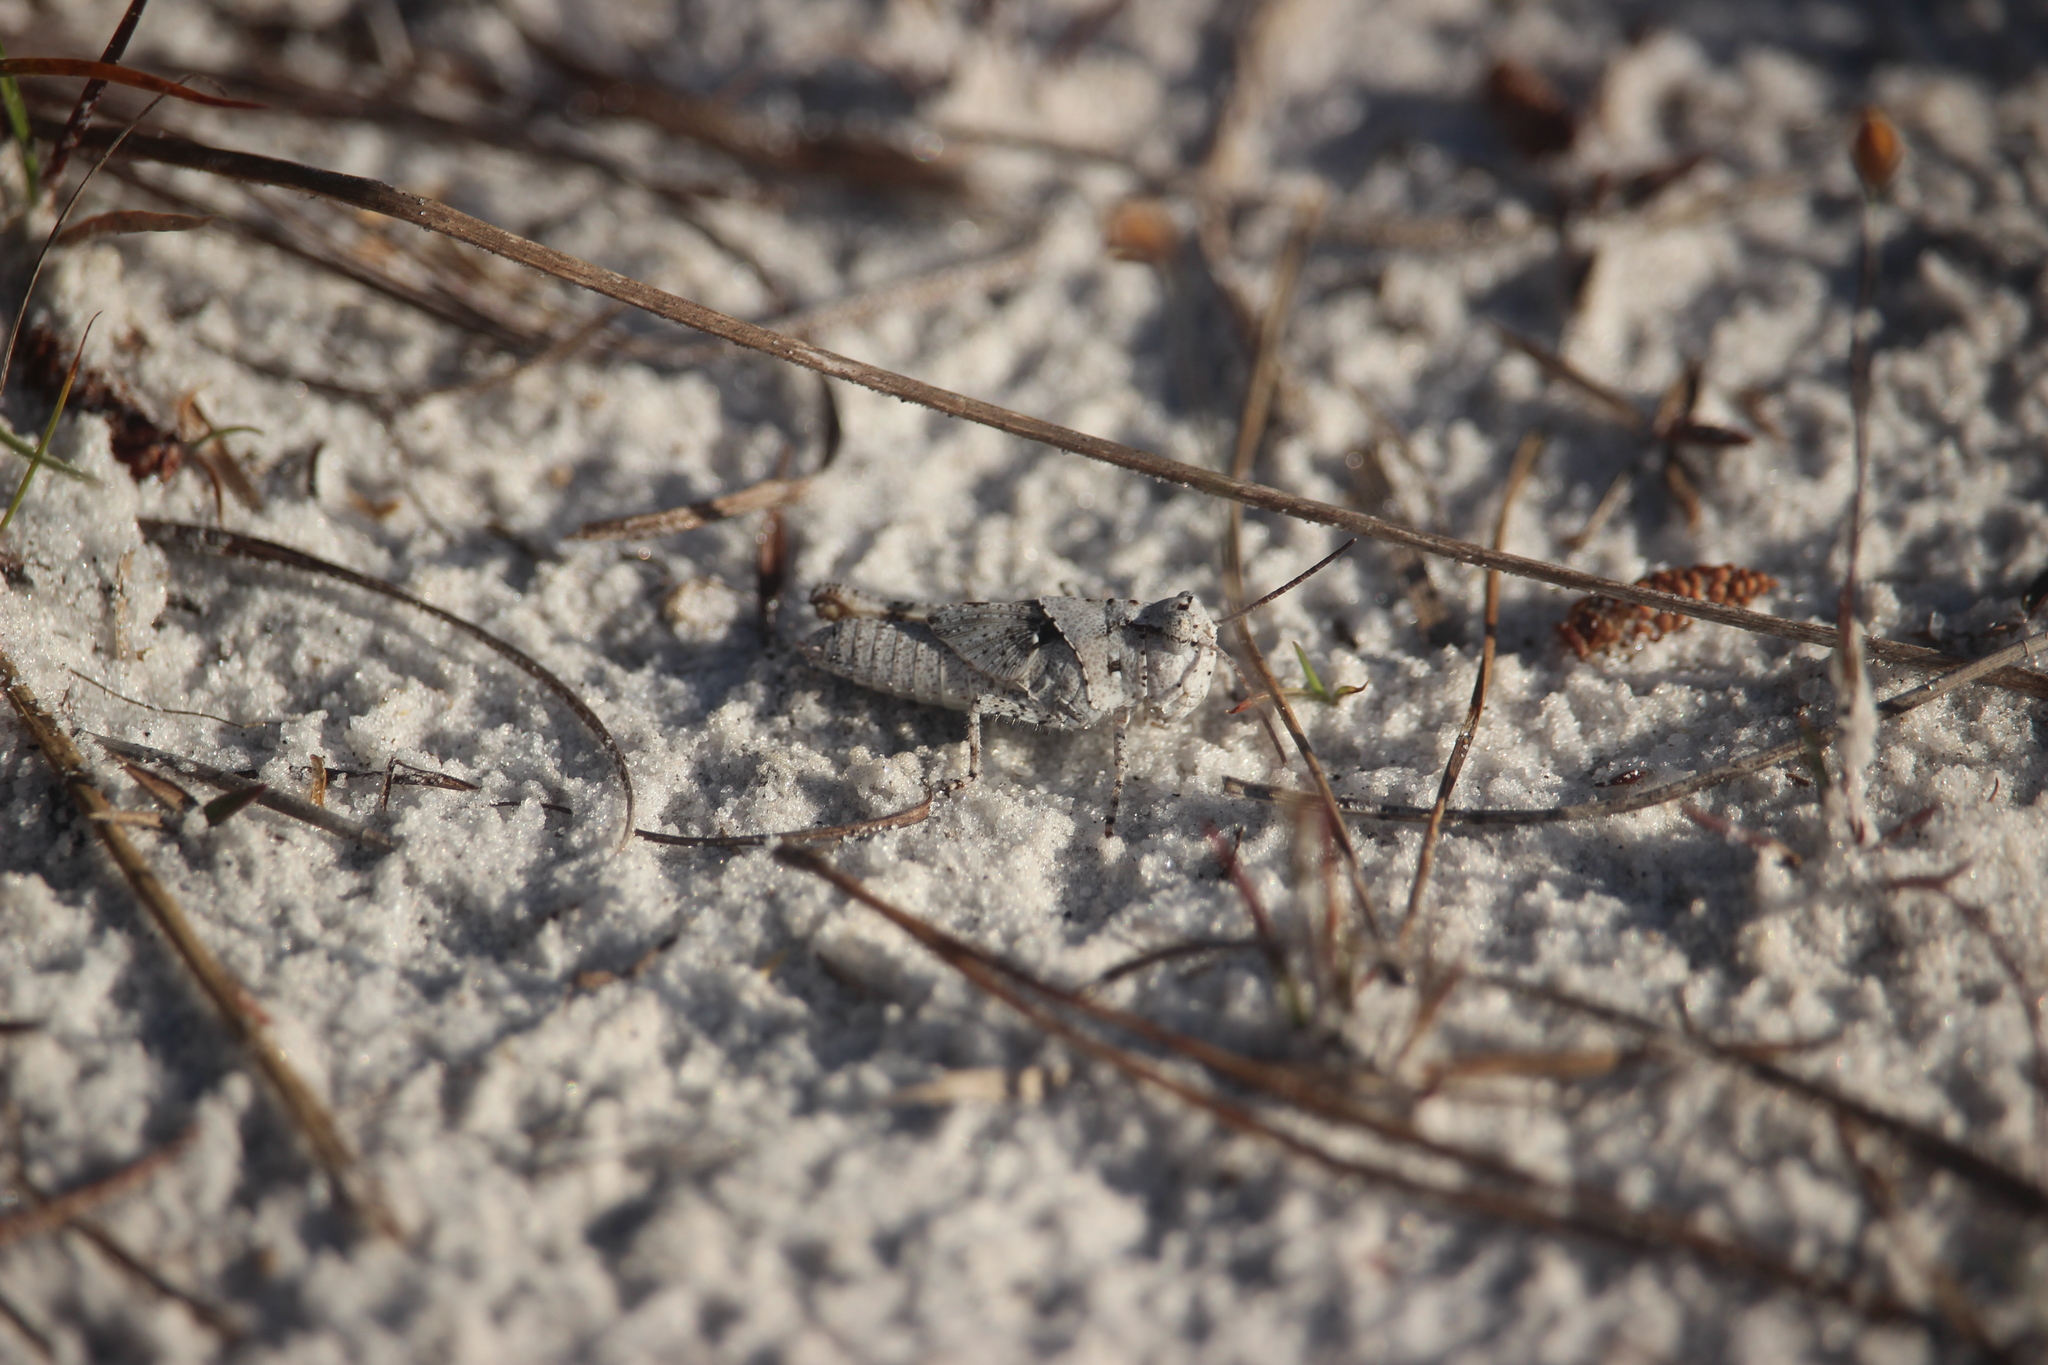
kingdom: Animalia
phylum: Arthropoda
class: Insecta
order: Orthoptera
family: Acrididae
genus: Trimerotropis
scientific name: Trimerotropis maritima
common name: Seaside locust
